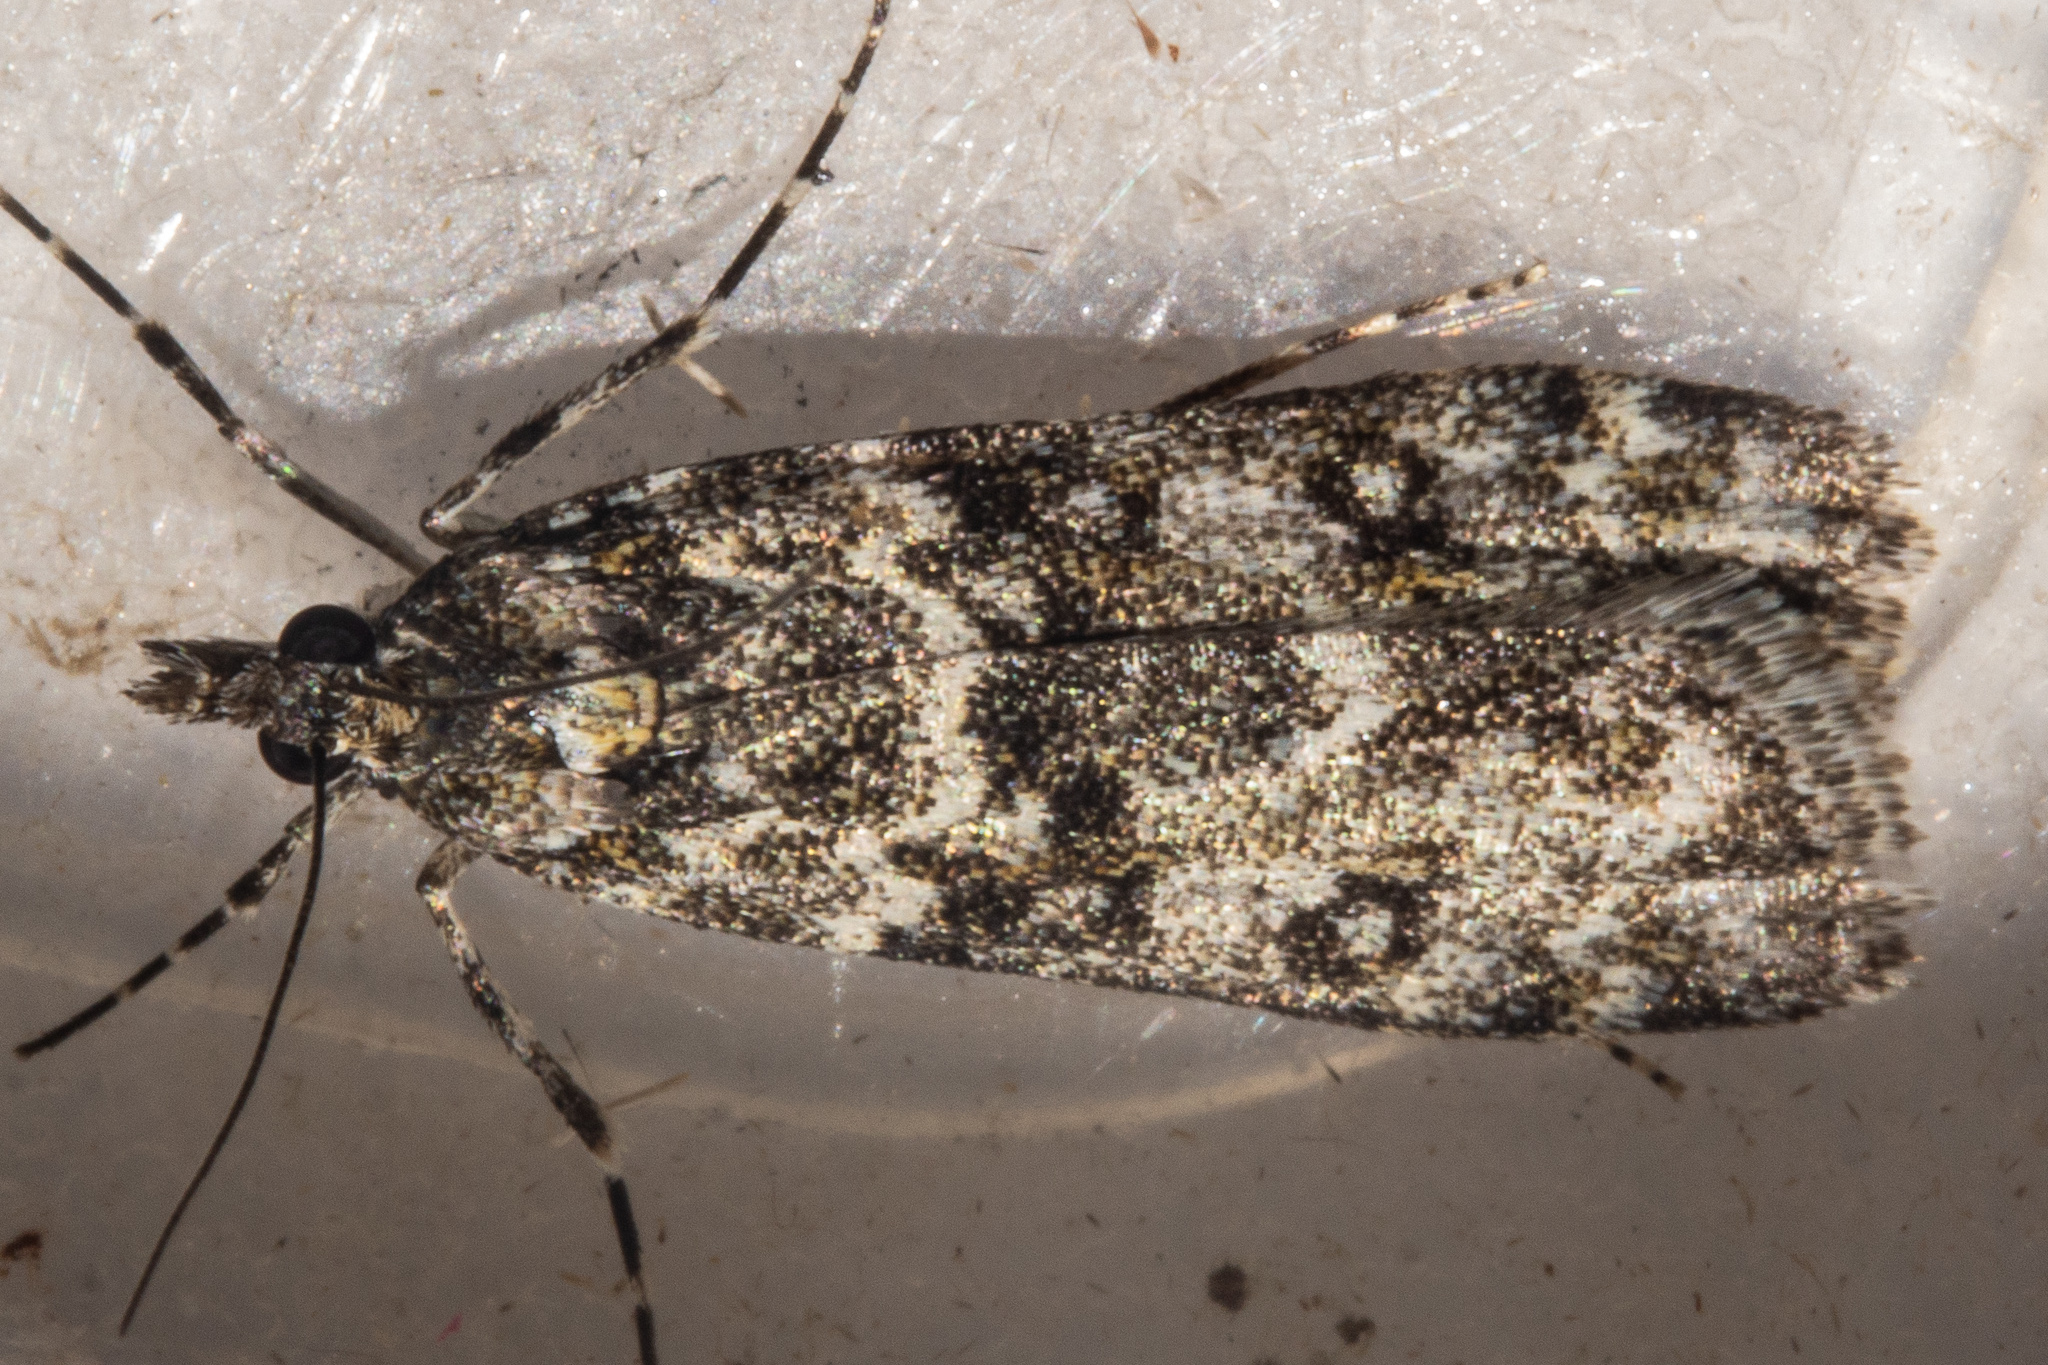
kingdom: Animalia
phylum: Arthropoda
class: Insecta
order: Lepidoptera
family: Crambidae
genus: Eudonia
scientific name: Eudonia manganeutis
